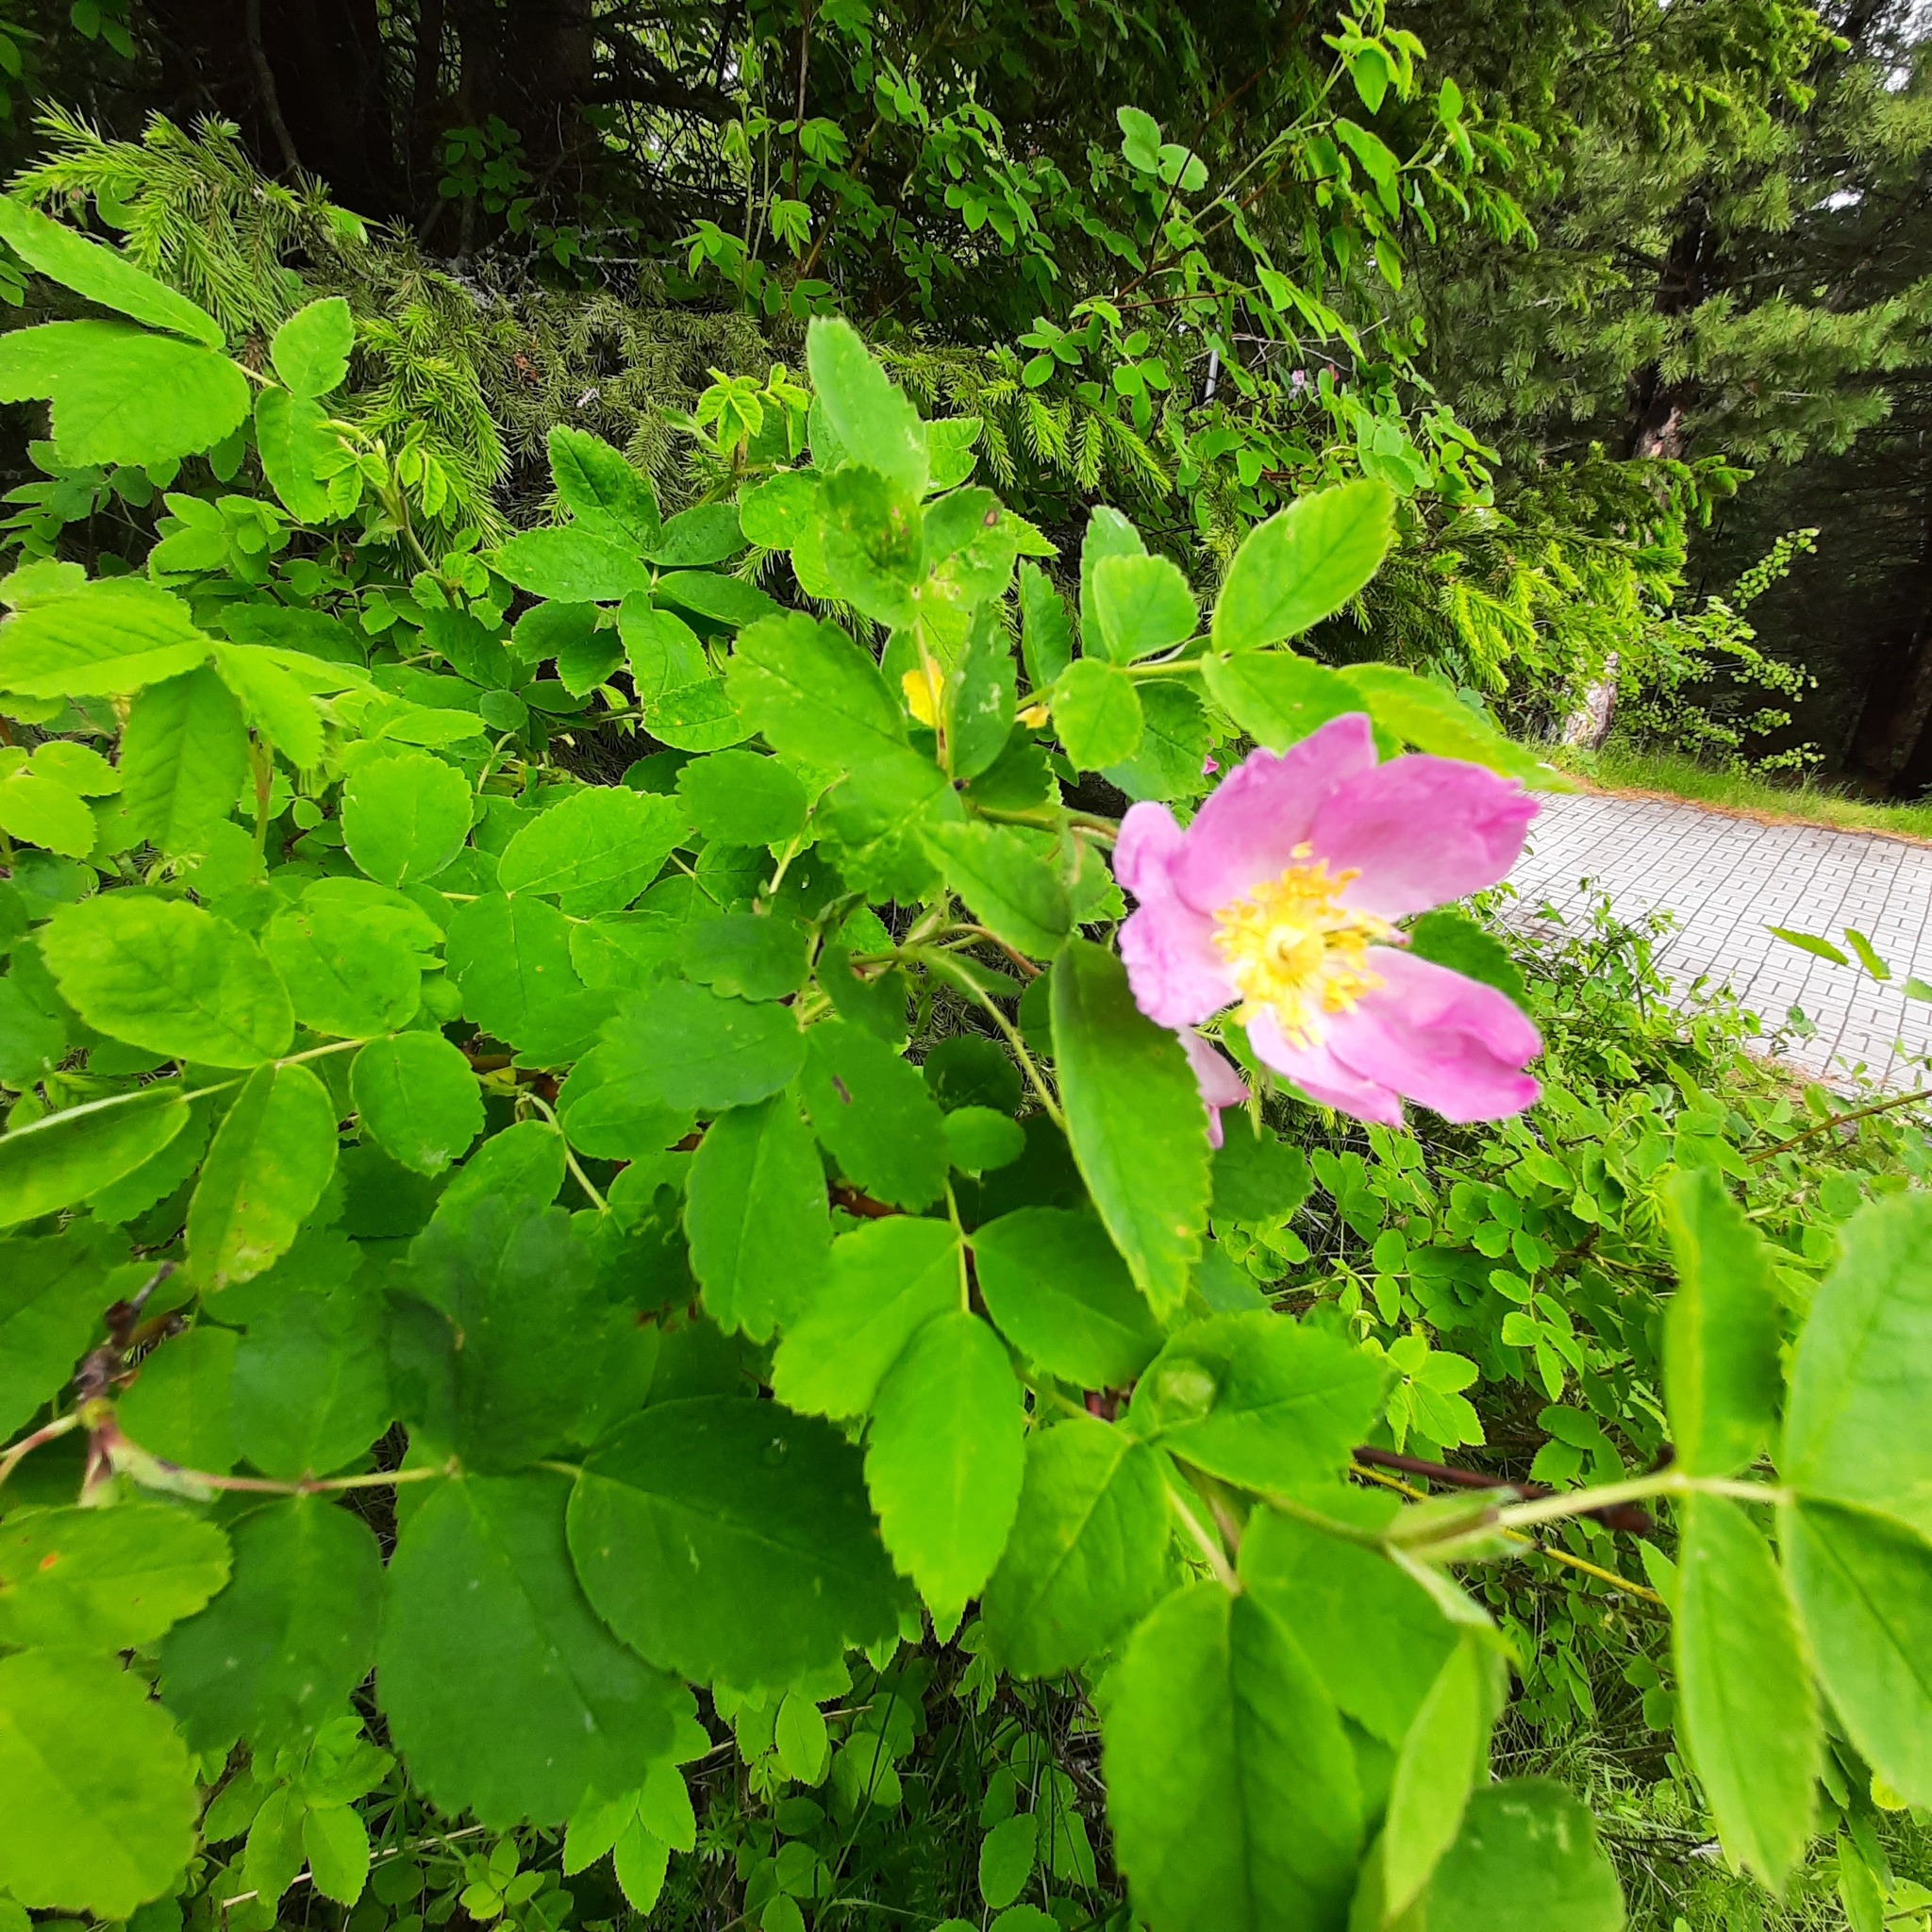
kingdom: Plantae
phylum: Tracheophyta
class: Magnoliopsida
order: Rosales
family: Rosaceae
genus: Rosa
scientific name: Rosa acicularis
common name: Prickly rose
